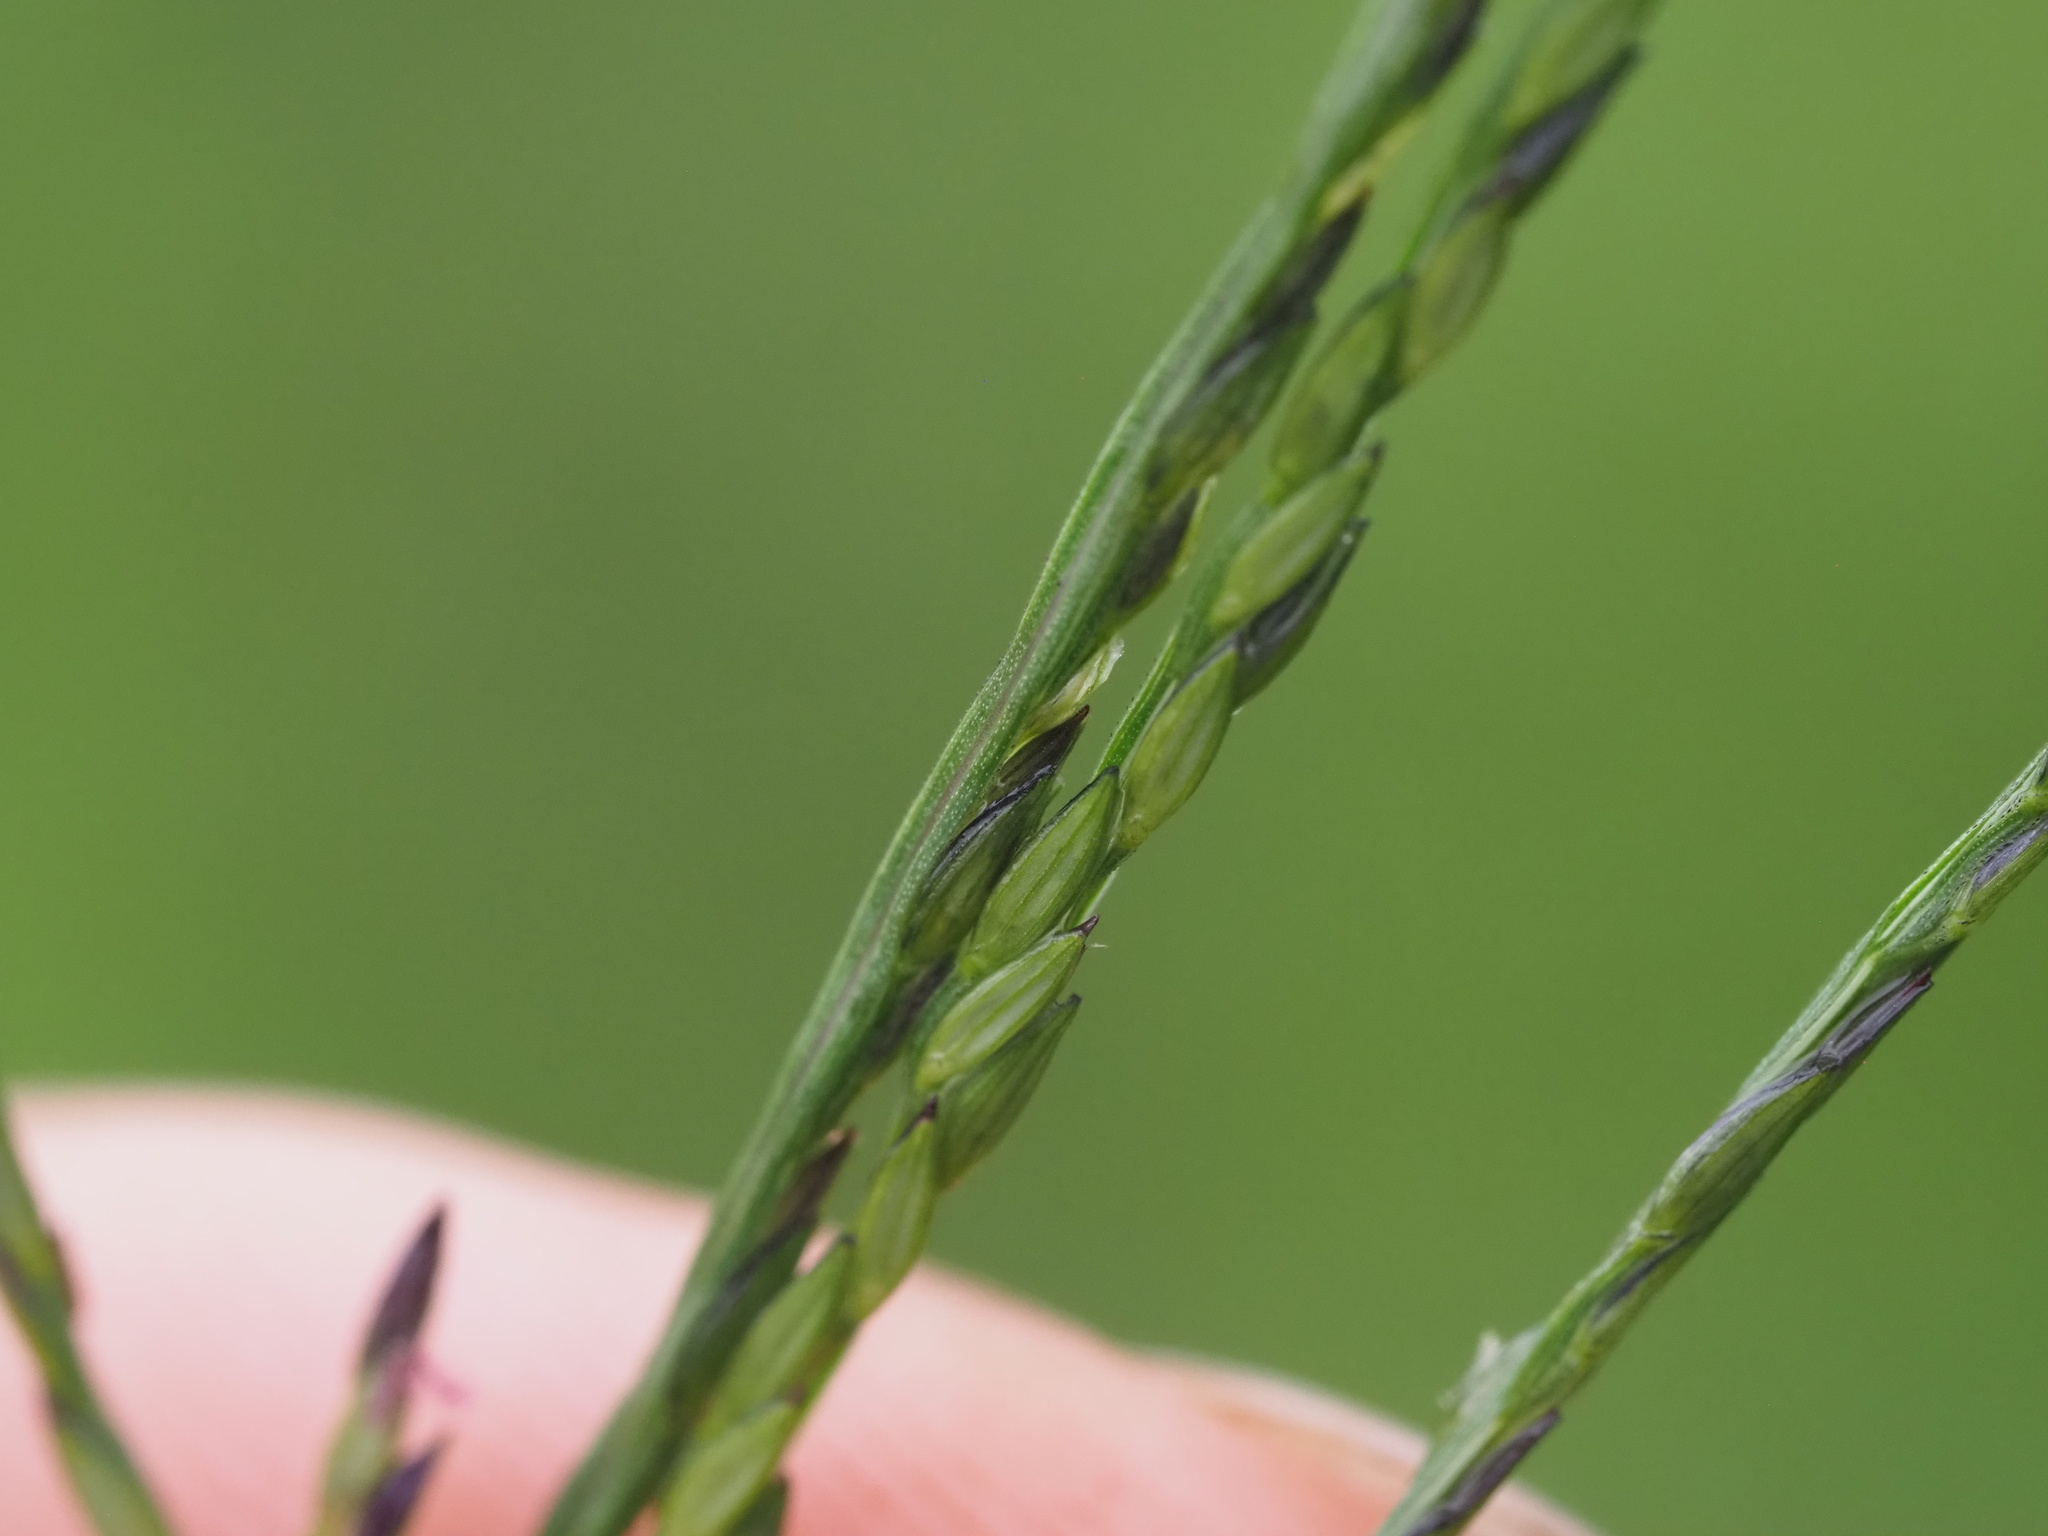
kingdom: Plantae
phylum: Tracheophyta
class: Liliopsida
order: Poales
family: Poaceae
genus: Digitaria
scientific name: Digitaria ciliaris
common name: Tropical finger-grass
